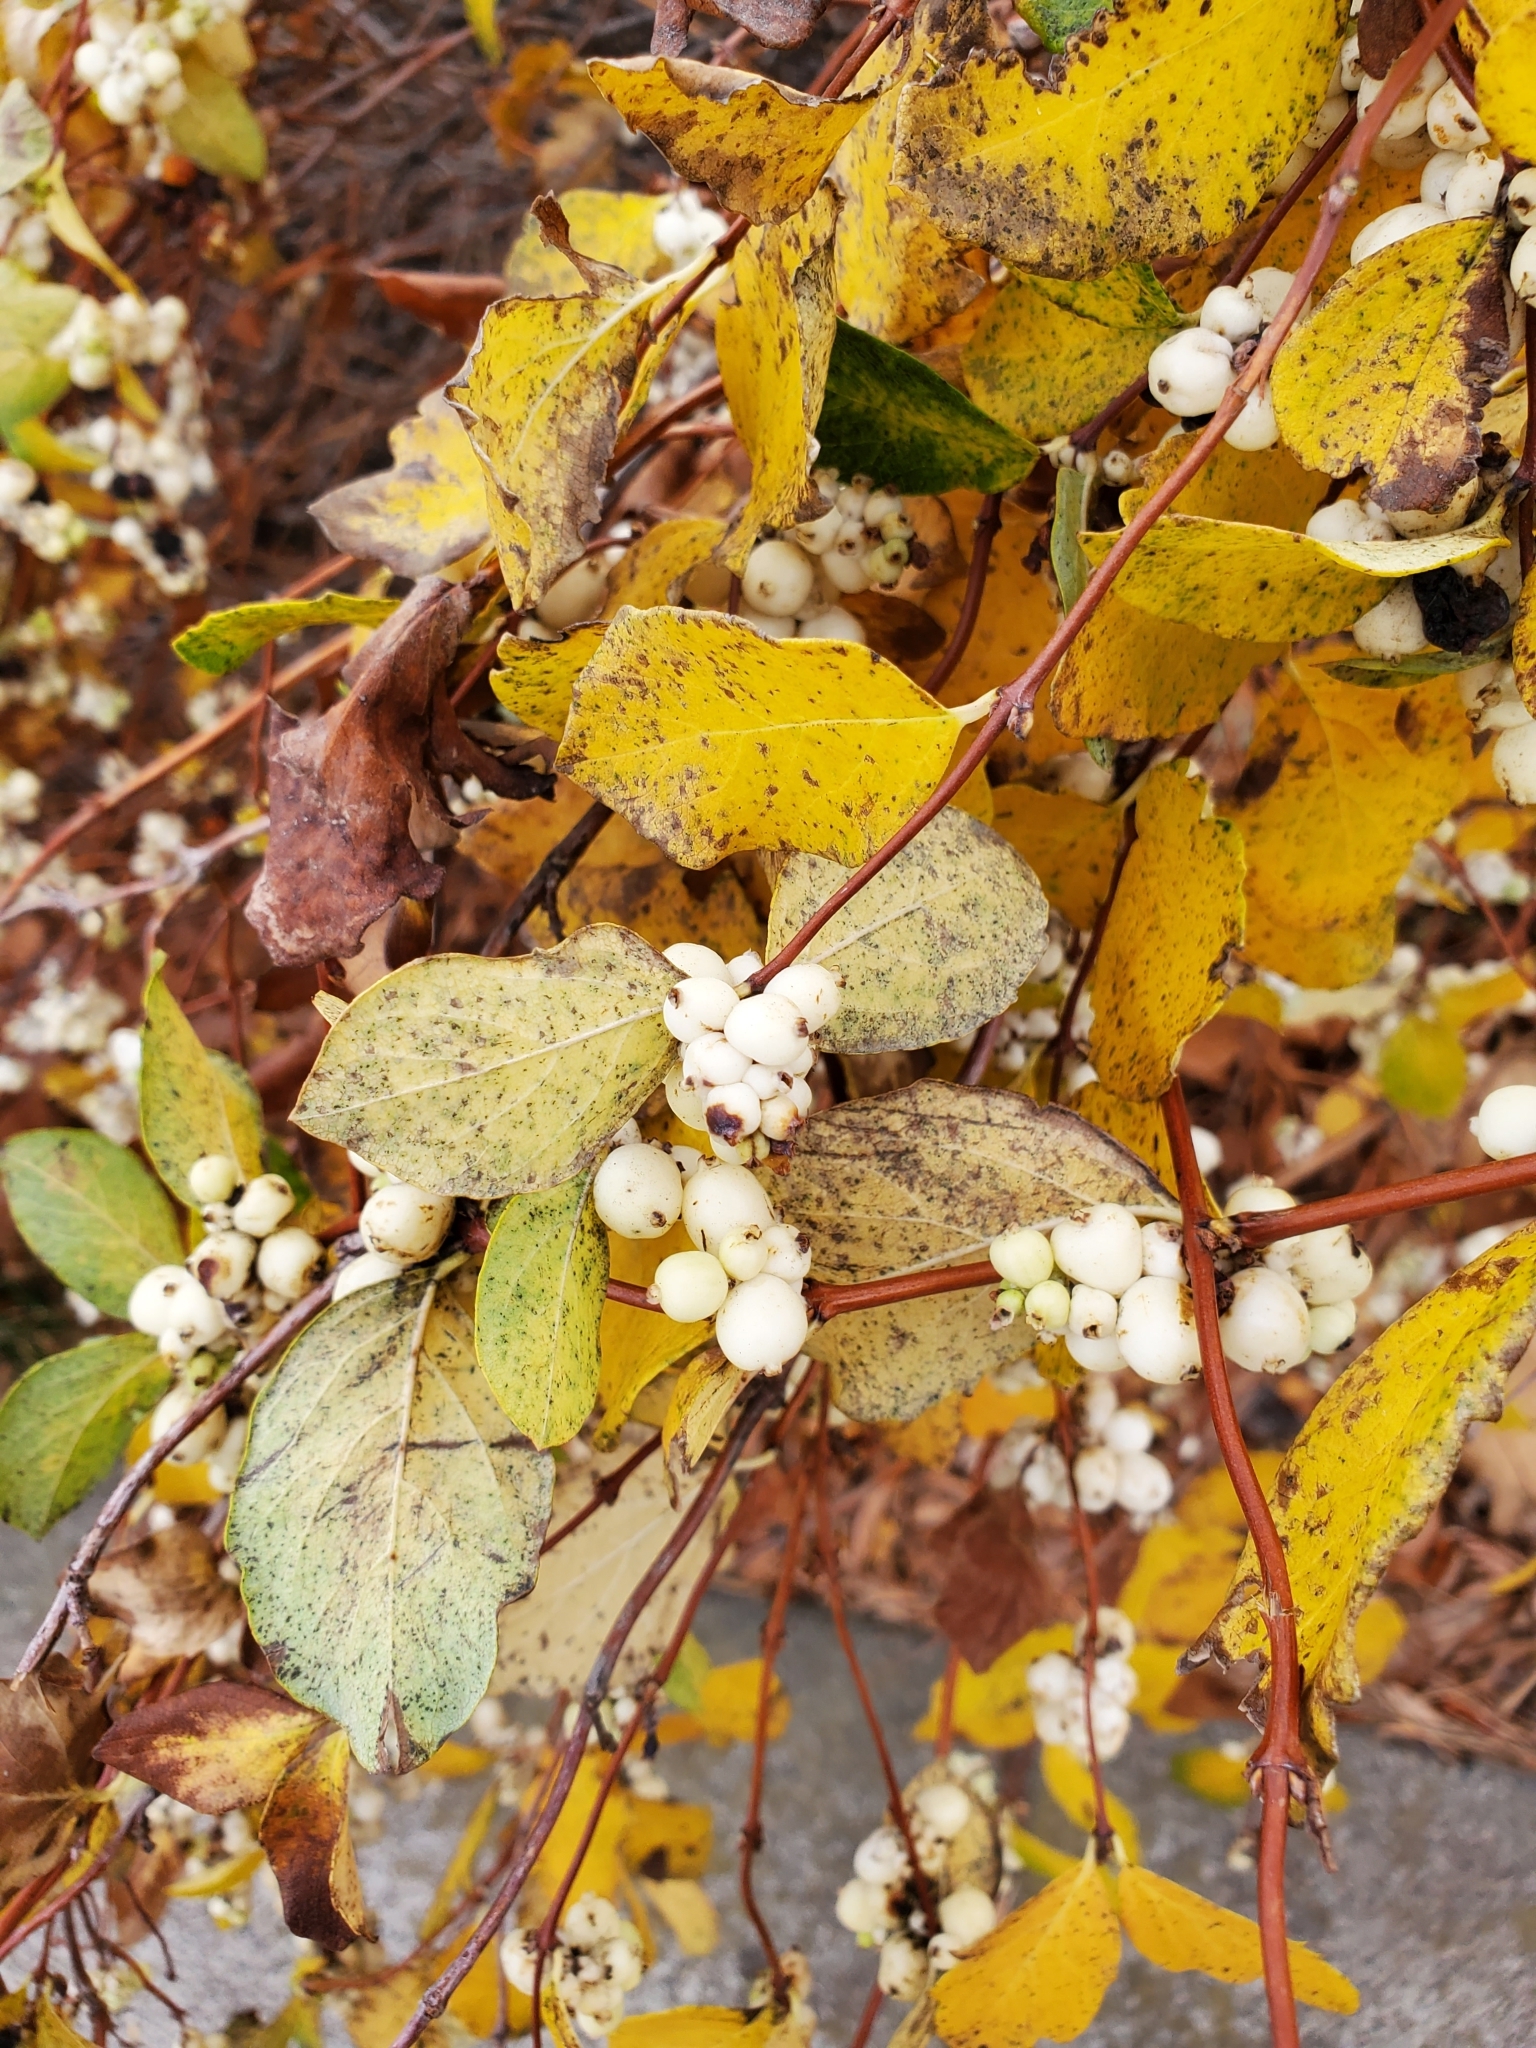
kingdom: Plantae
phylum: Tracheophyta
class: Magnoliopsida
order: Dipsacales
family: Caprifoliaceae
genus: Symphoricarpos
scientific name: Symphoricarpos albus
